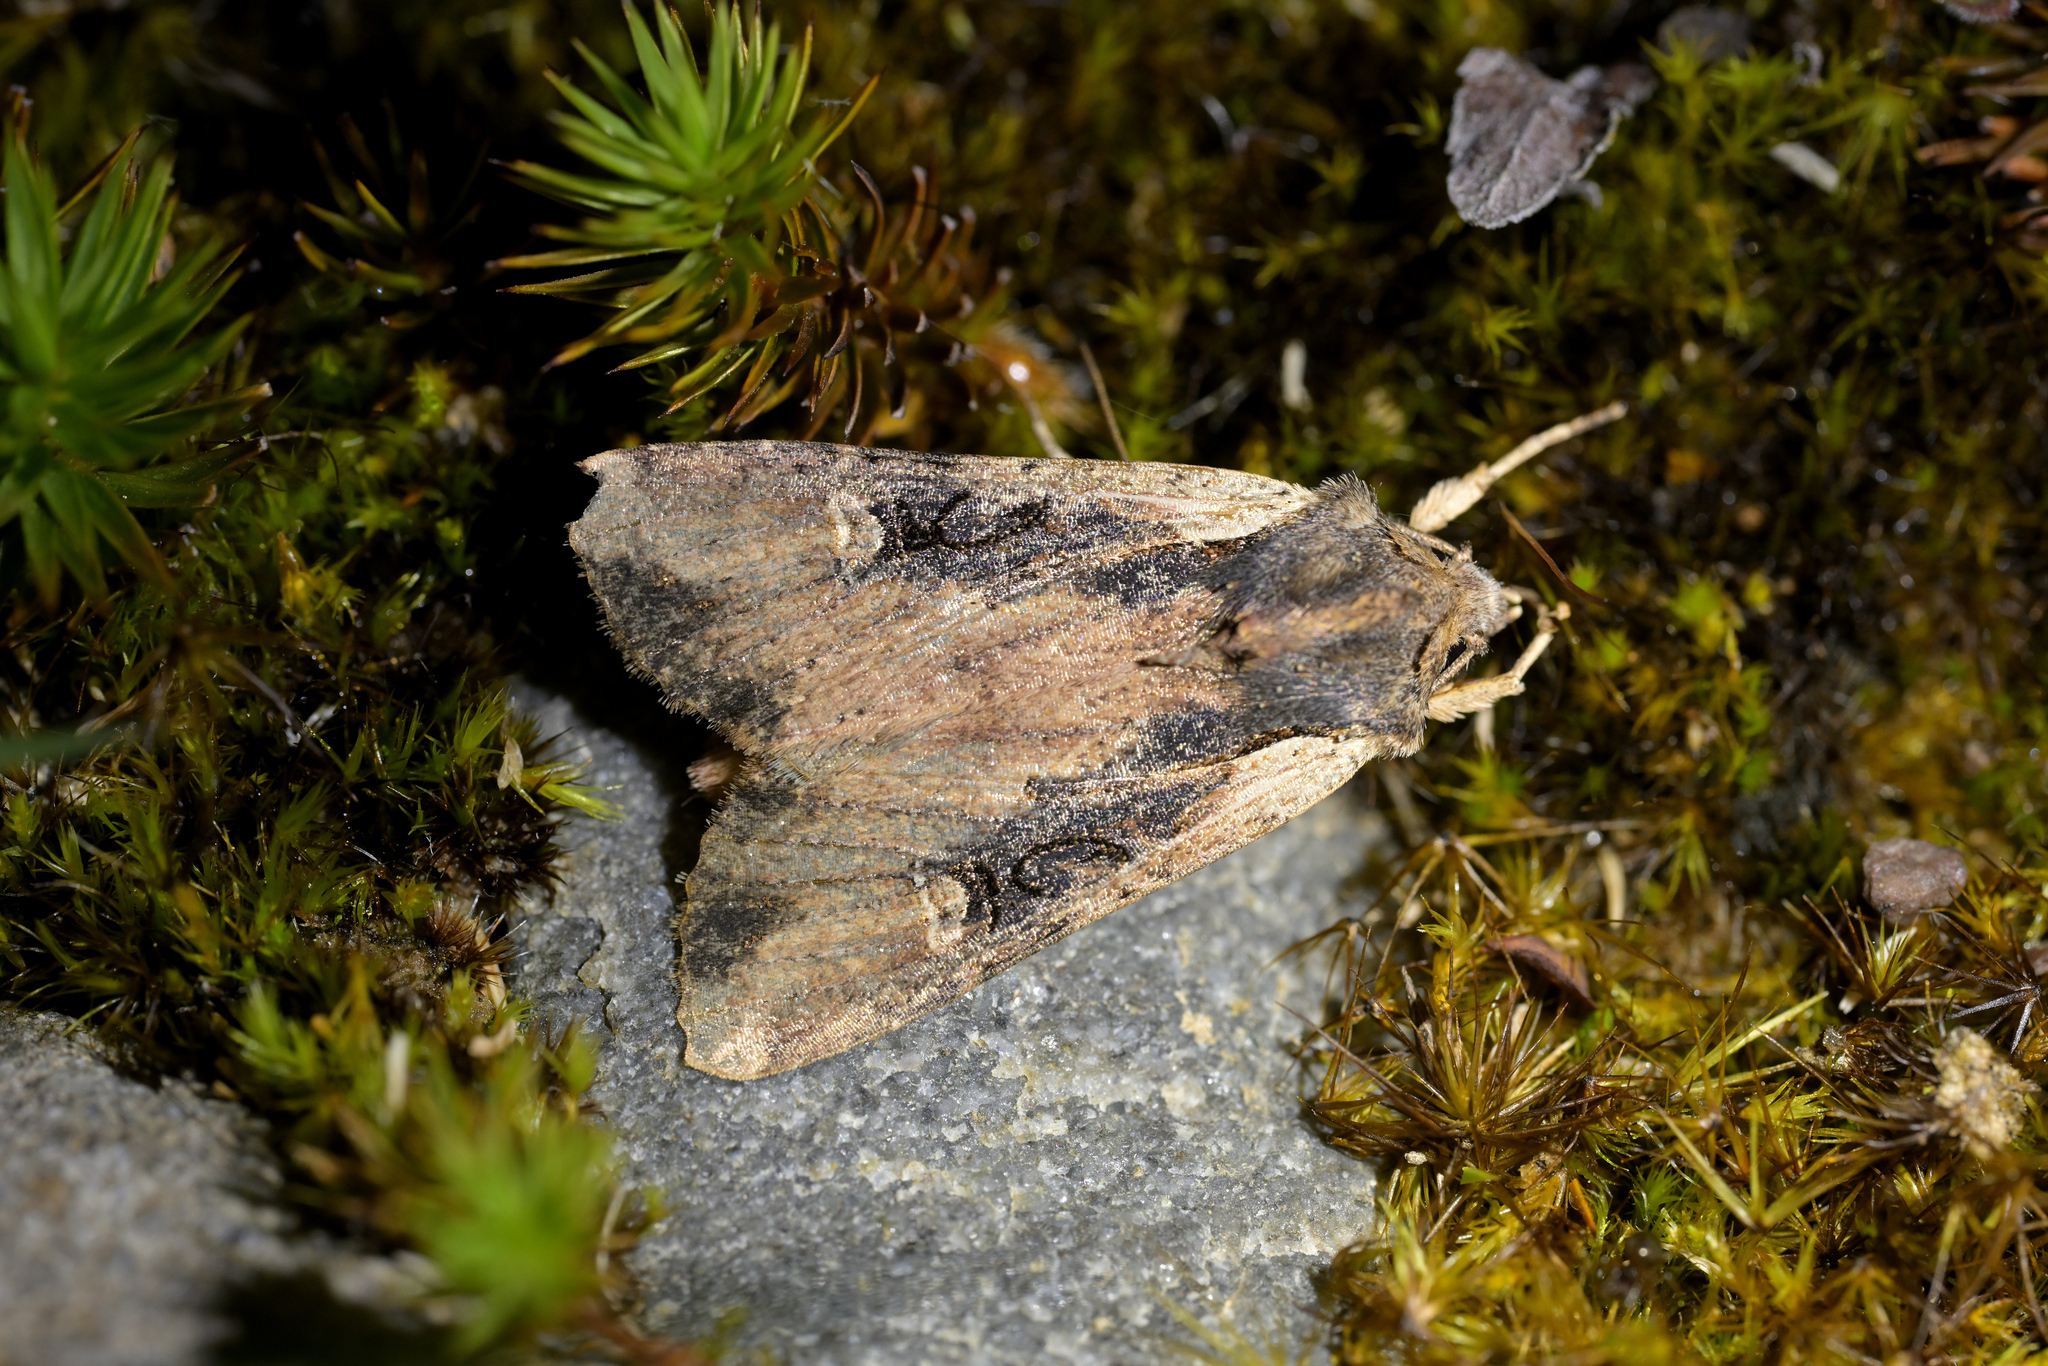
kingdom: Animalia
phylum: Arthropoda
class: Insecta
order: Lepidoptera
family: Noctuidae
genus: Ichneutica
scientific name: Ichneutica omoplaca
